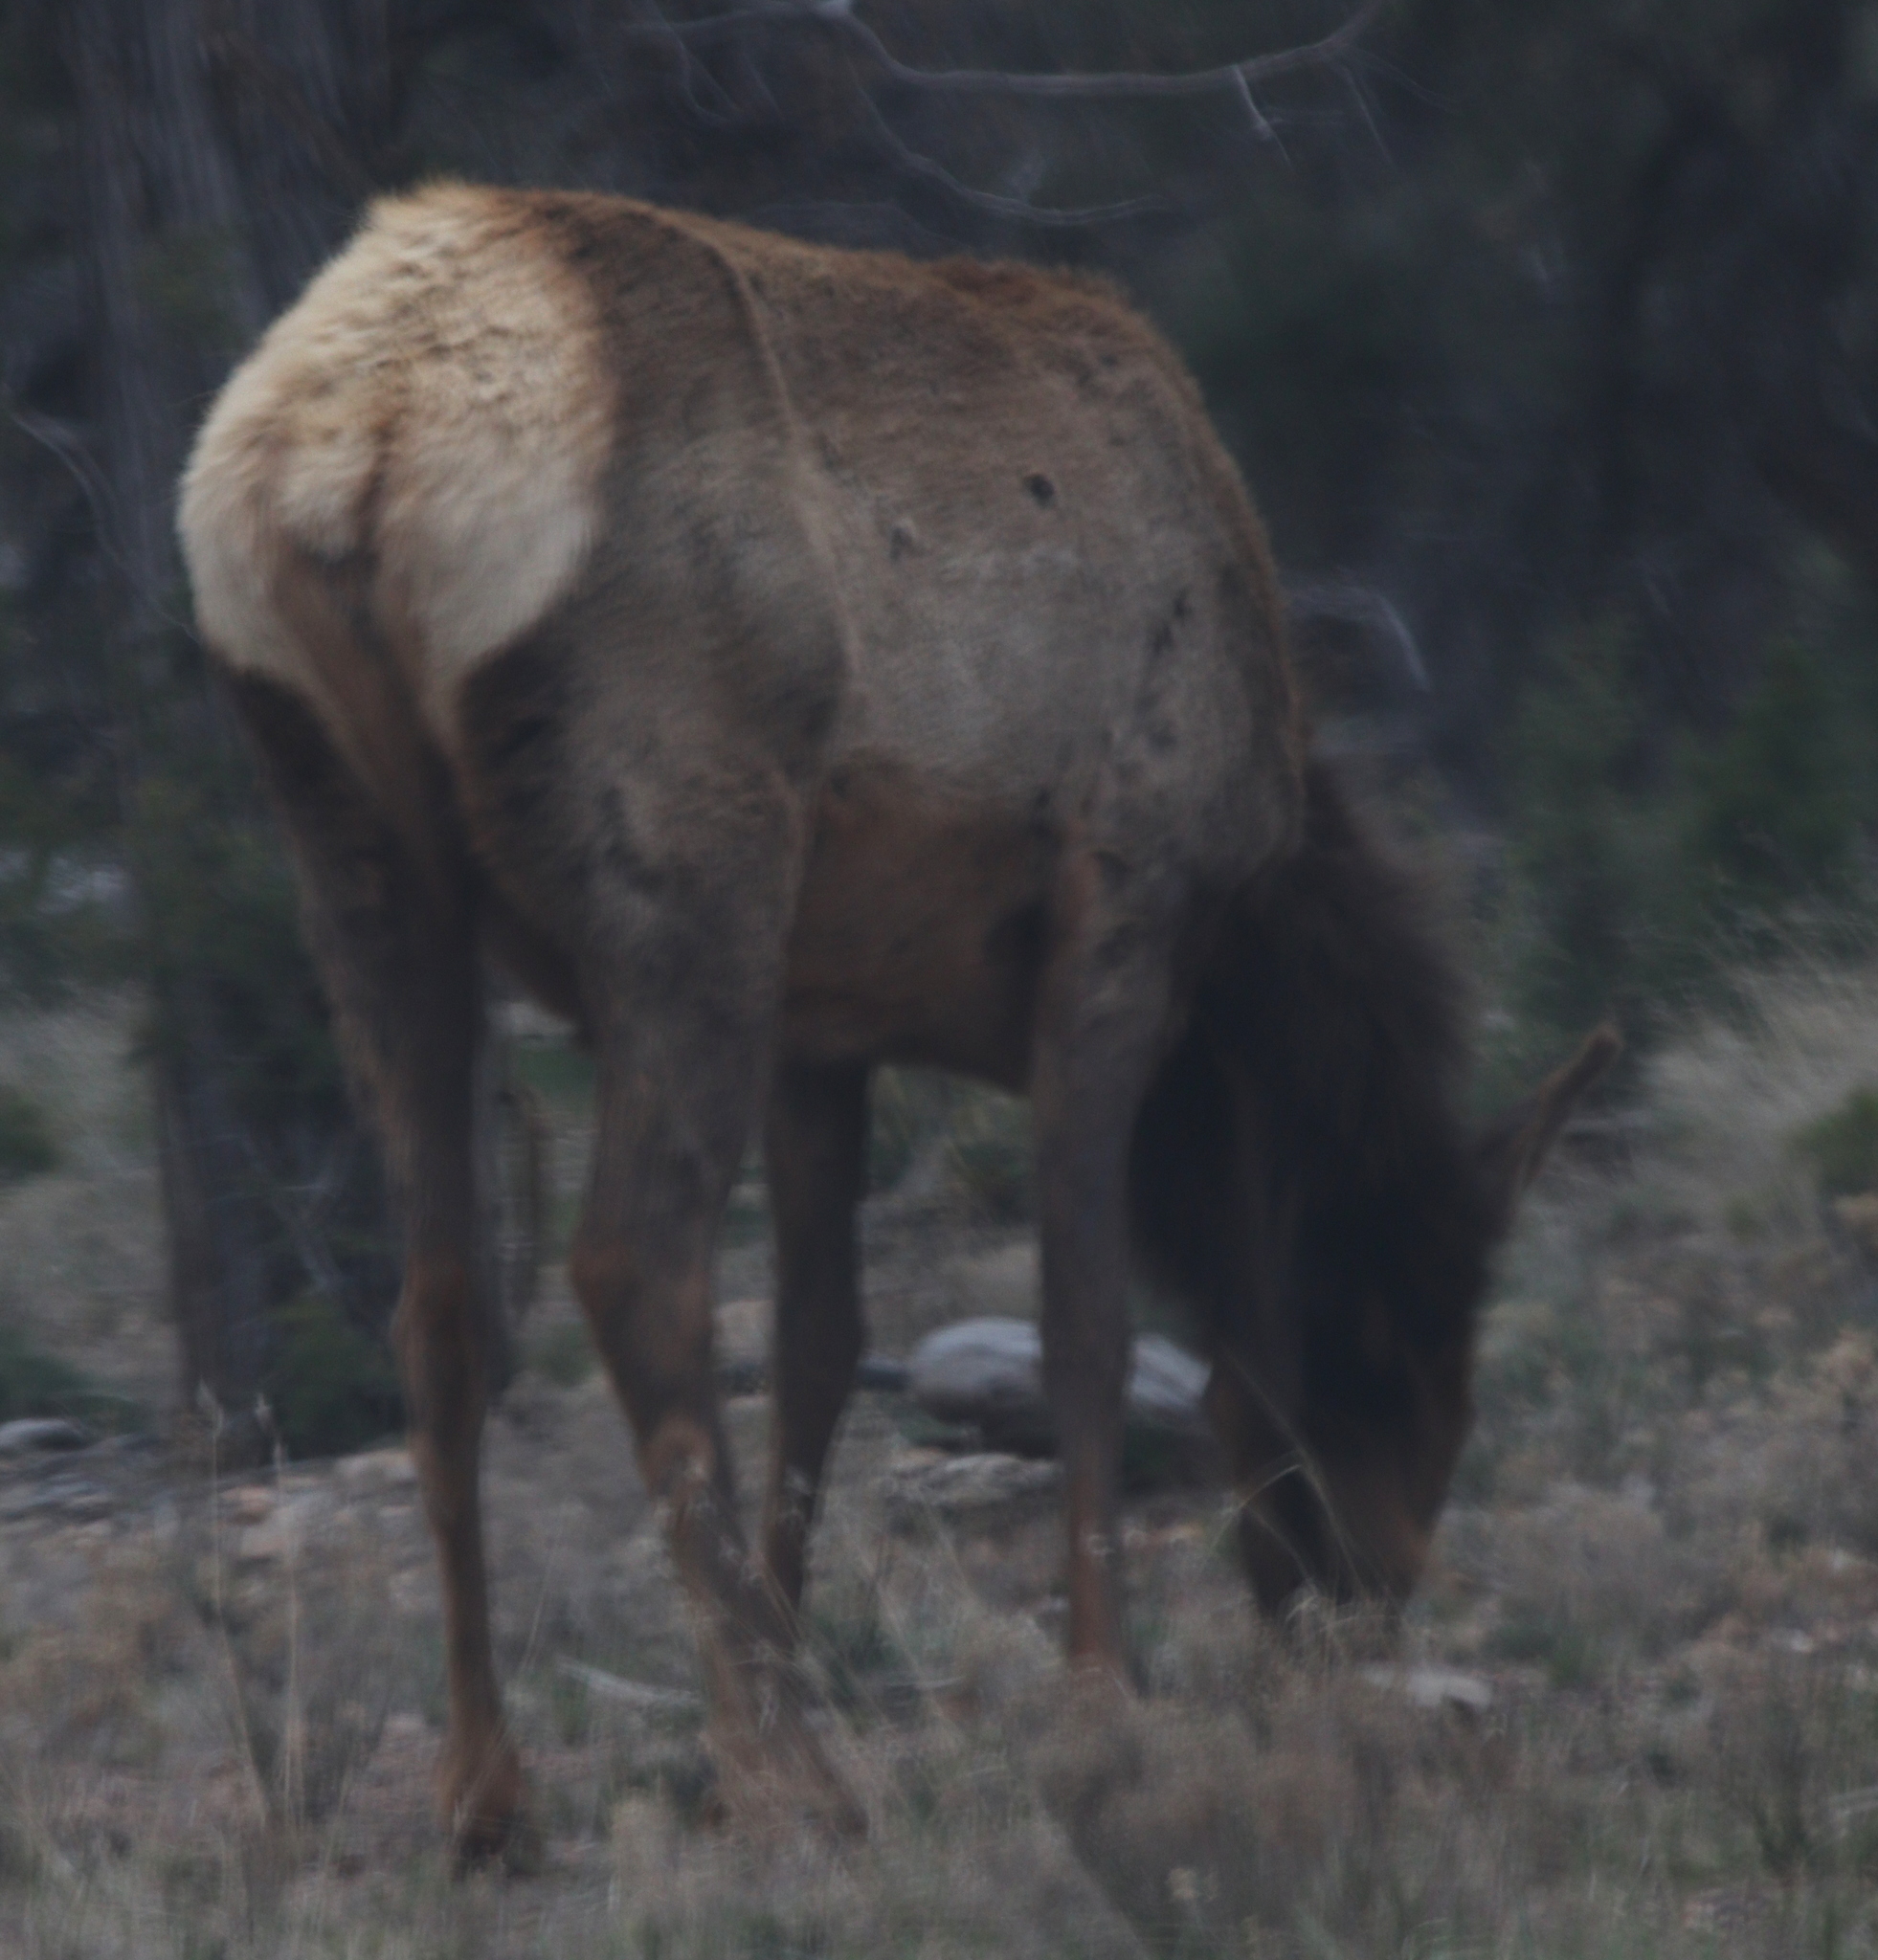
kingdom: Animalia
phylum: Chordata
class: Mammalia
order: Artiodactyla
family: Cervidae
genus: Cervus
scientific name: Cervus elaphus
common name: Red deer
